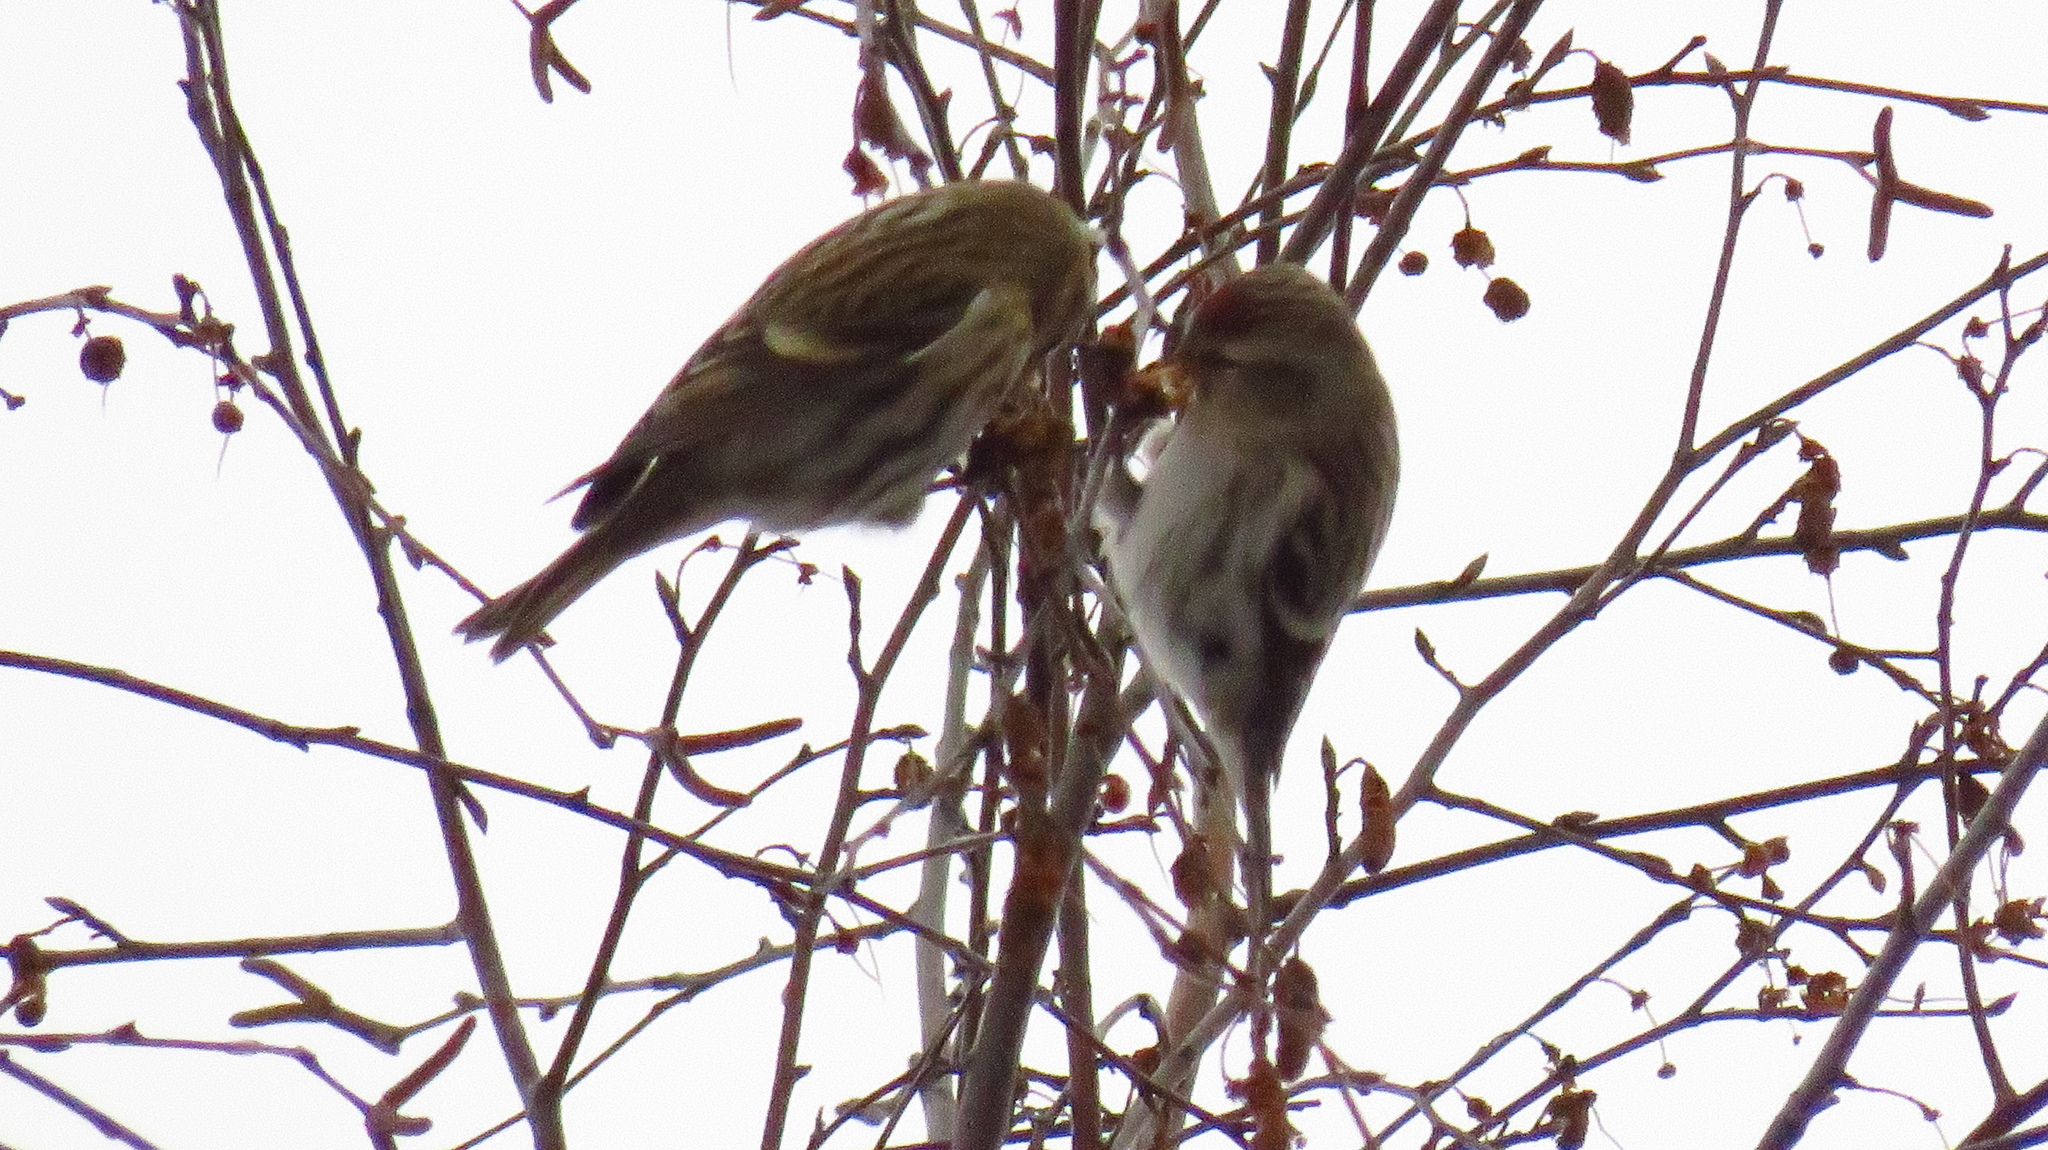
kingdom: Animalia
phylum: Chordata
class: Aves
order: Passeriformes
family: Fringillidae
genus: Acanthis
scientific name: Acanthis flammea
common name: Common redpoll
